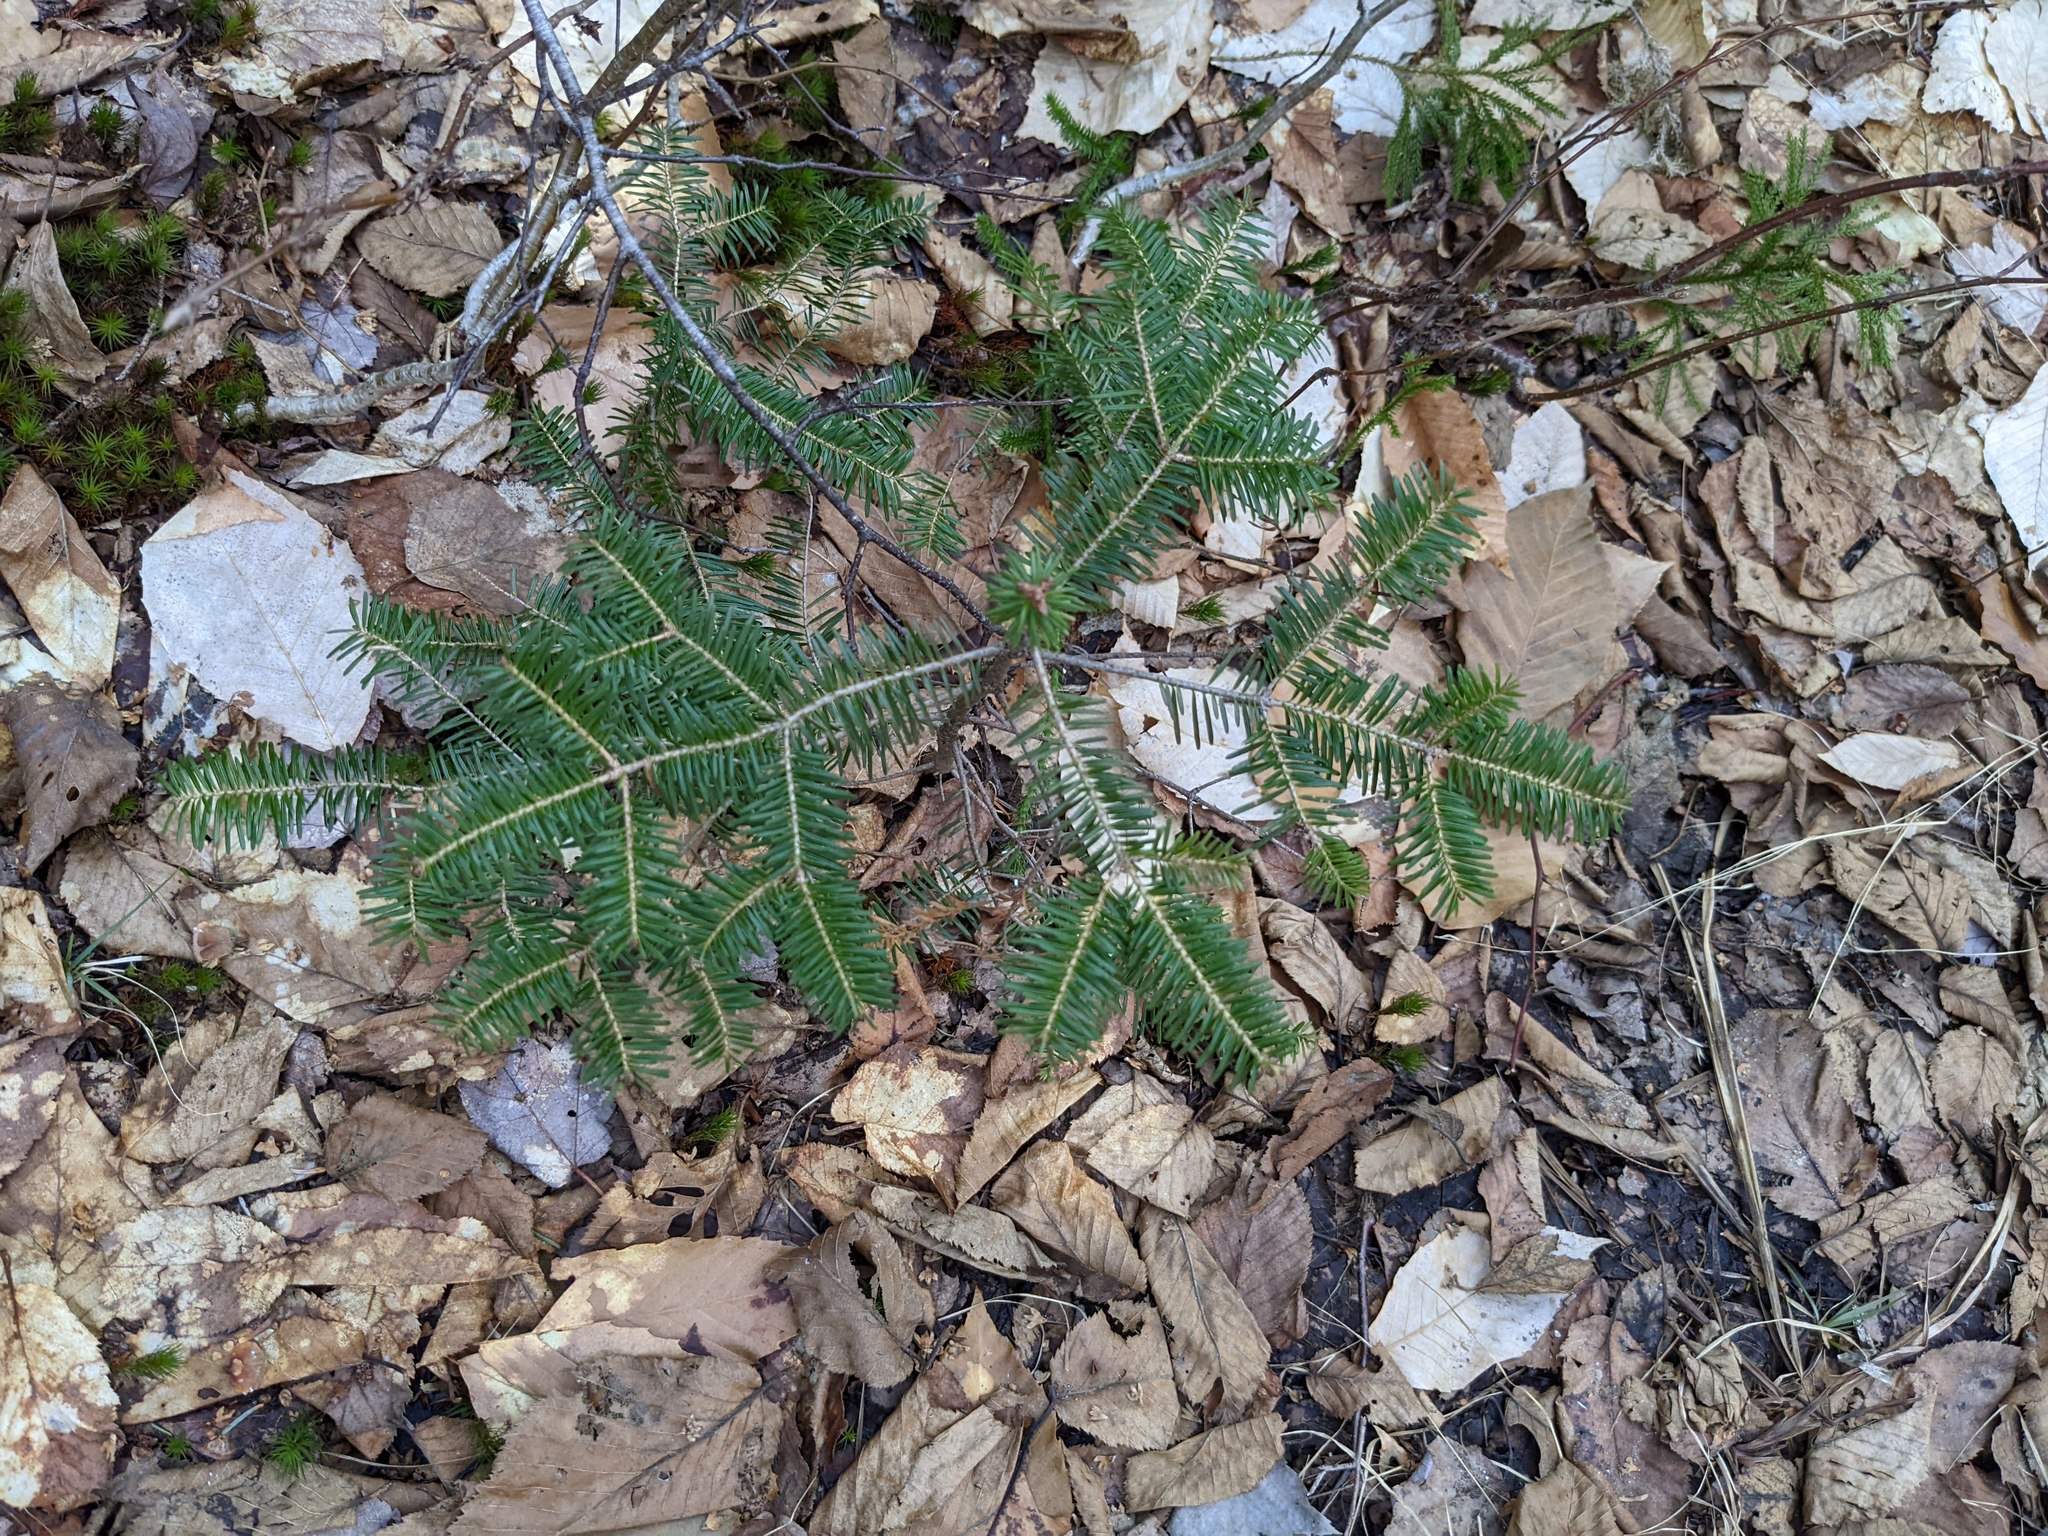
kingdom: Plantae
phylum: Tracheophyta
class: Pinopsida
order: Pinales
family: Pinaceae
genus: Abies
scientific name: Abies balsamea
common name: Balsam fir
